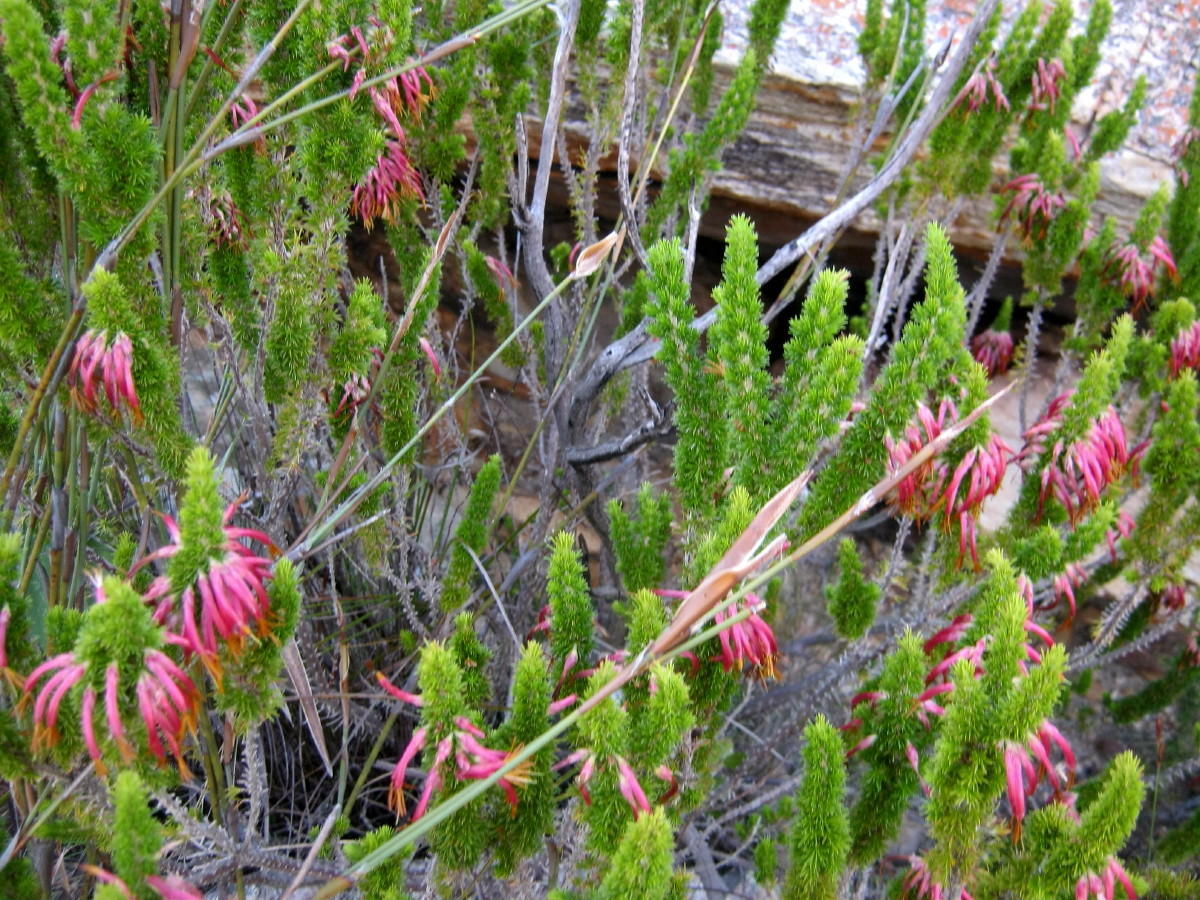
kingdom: Plantae
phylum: Tracheophyta
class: Magnoliopsida
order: Ericales
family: Ericaceae
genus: Erica
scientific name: Erica coccinea
